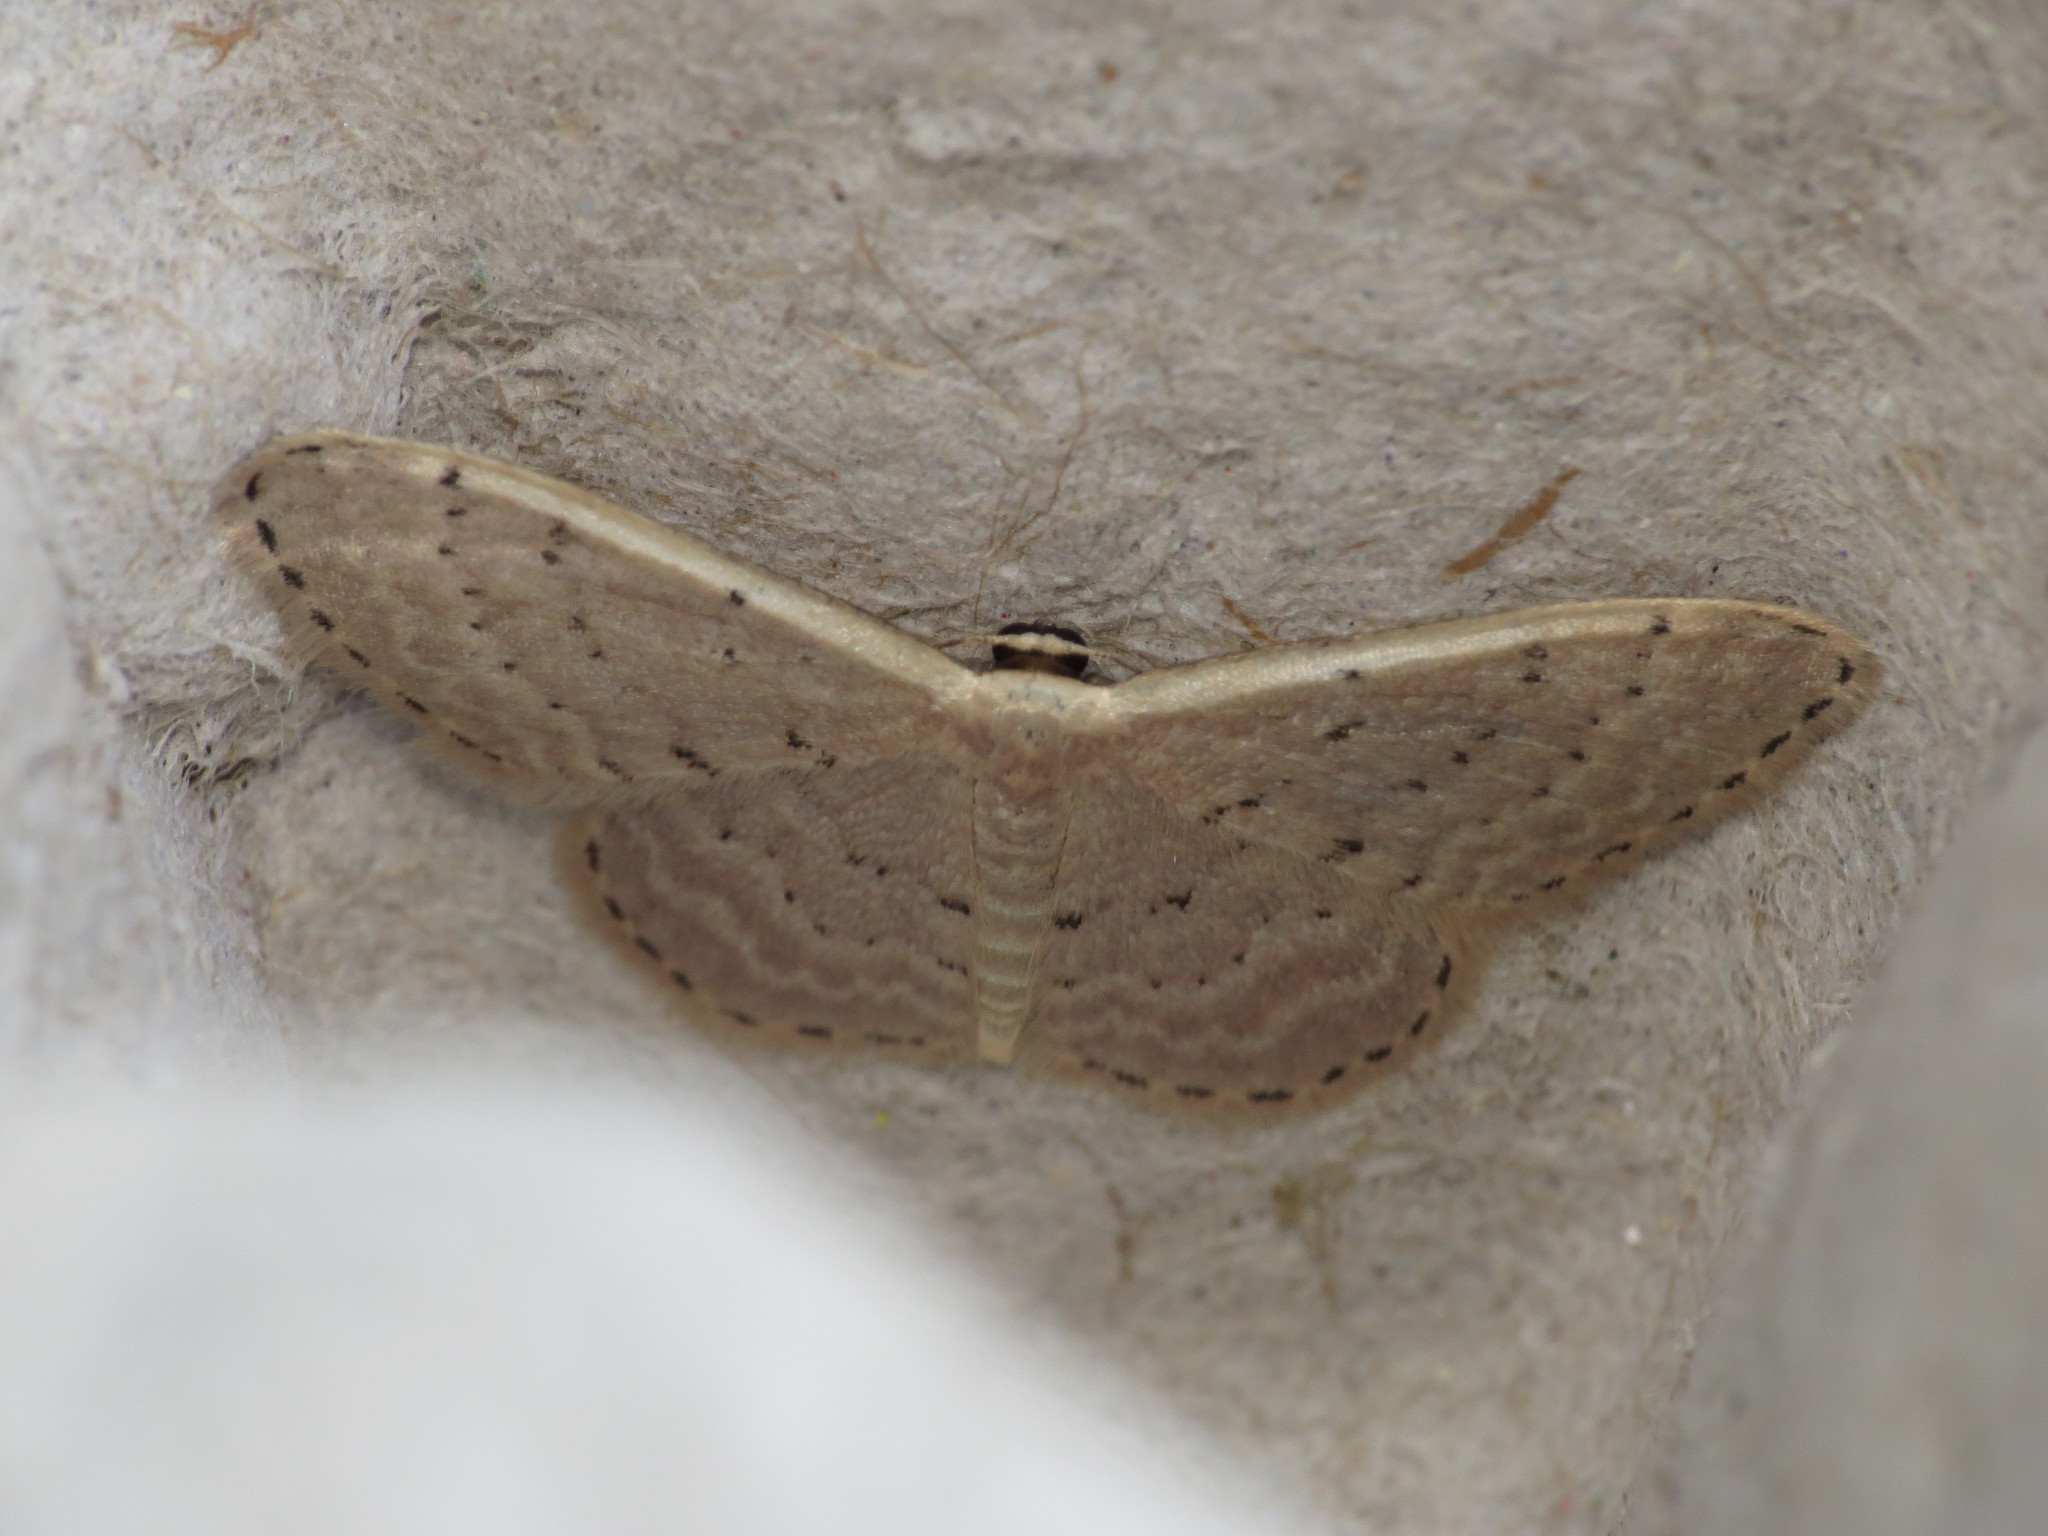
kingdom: Animalia
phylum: Arthropoda
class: Insecta
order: Lepidoptera
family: Geometridae
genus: Idaea
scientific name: Idaea philocosma
